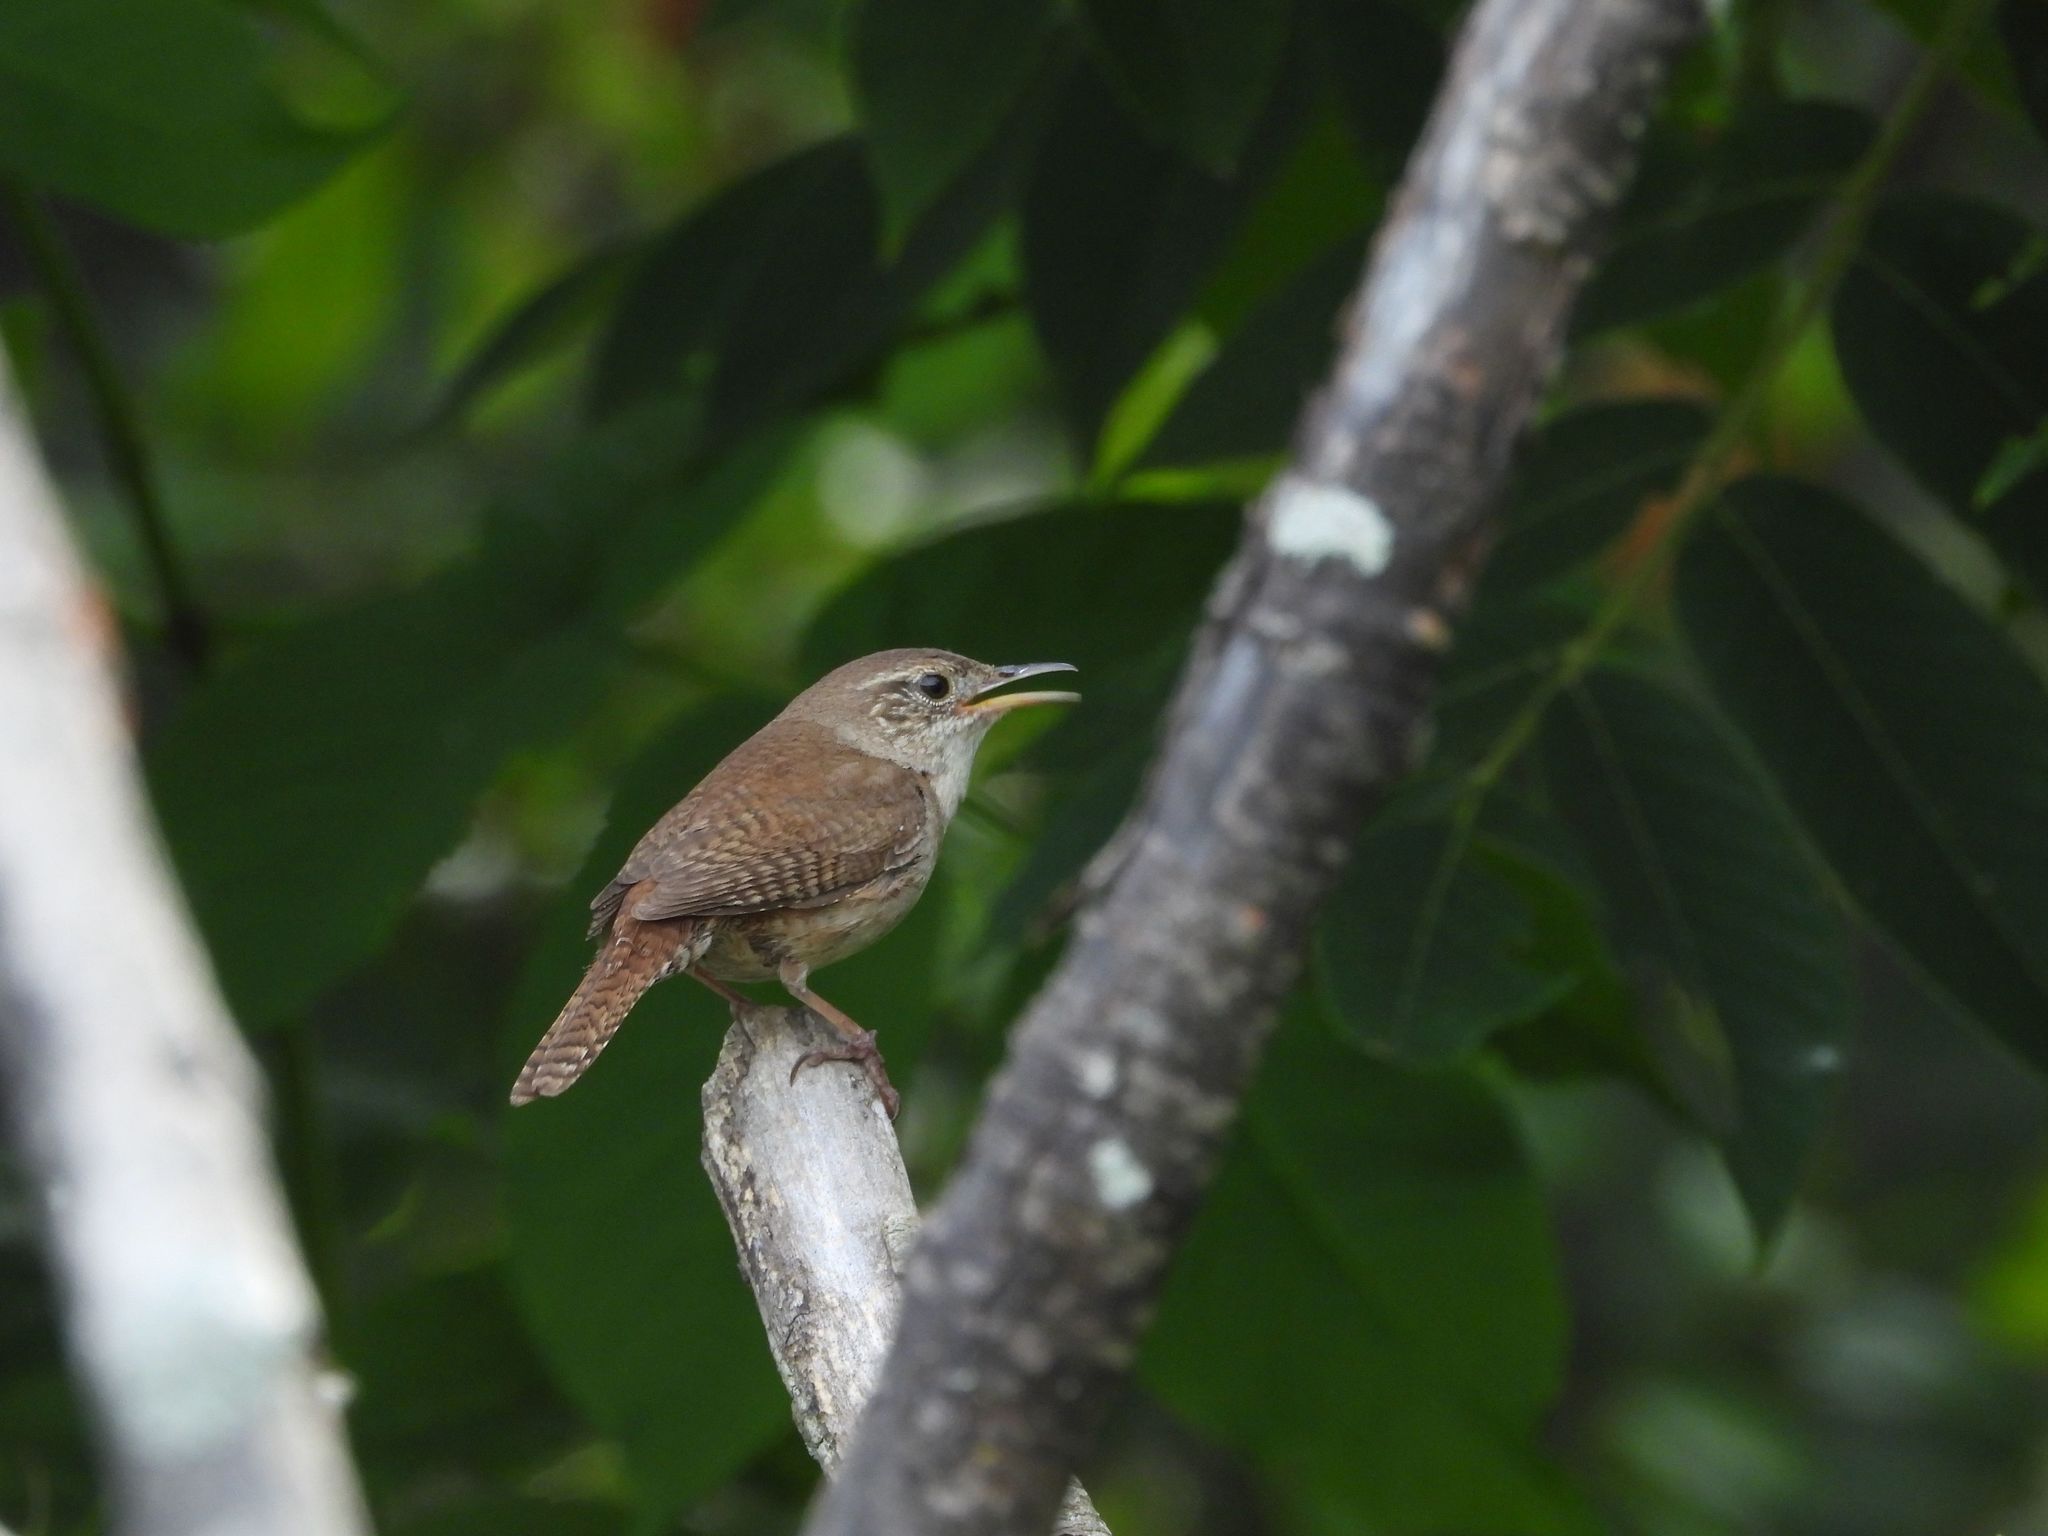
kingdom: Animalia
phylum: Chordata
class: Aves
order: Passeriformes
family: Troglodytidae
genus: Troglodytes
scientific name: Troglodytes aedon
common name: House wren
